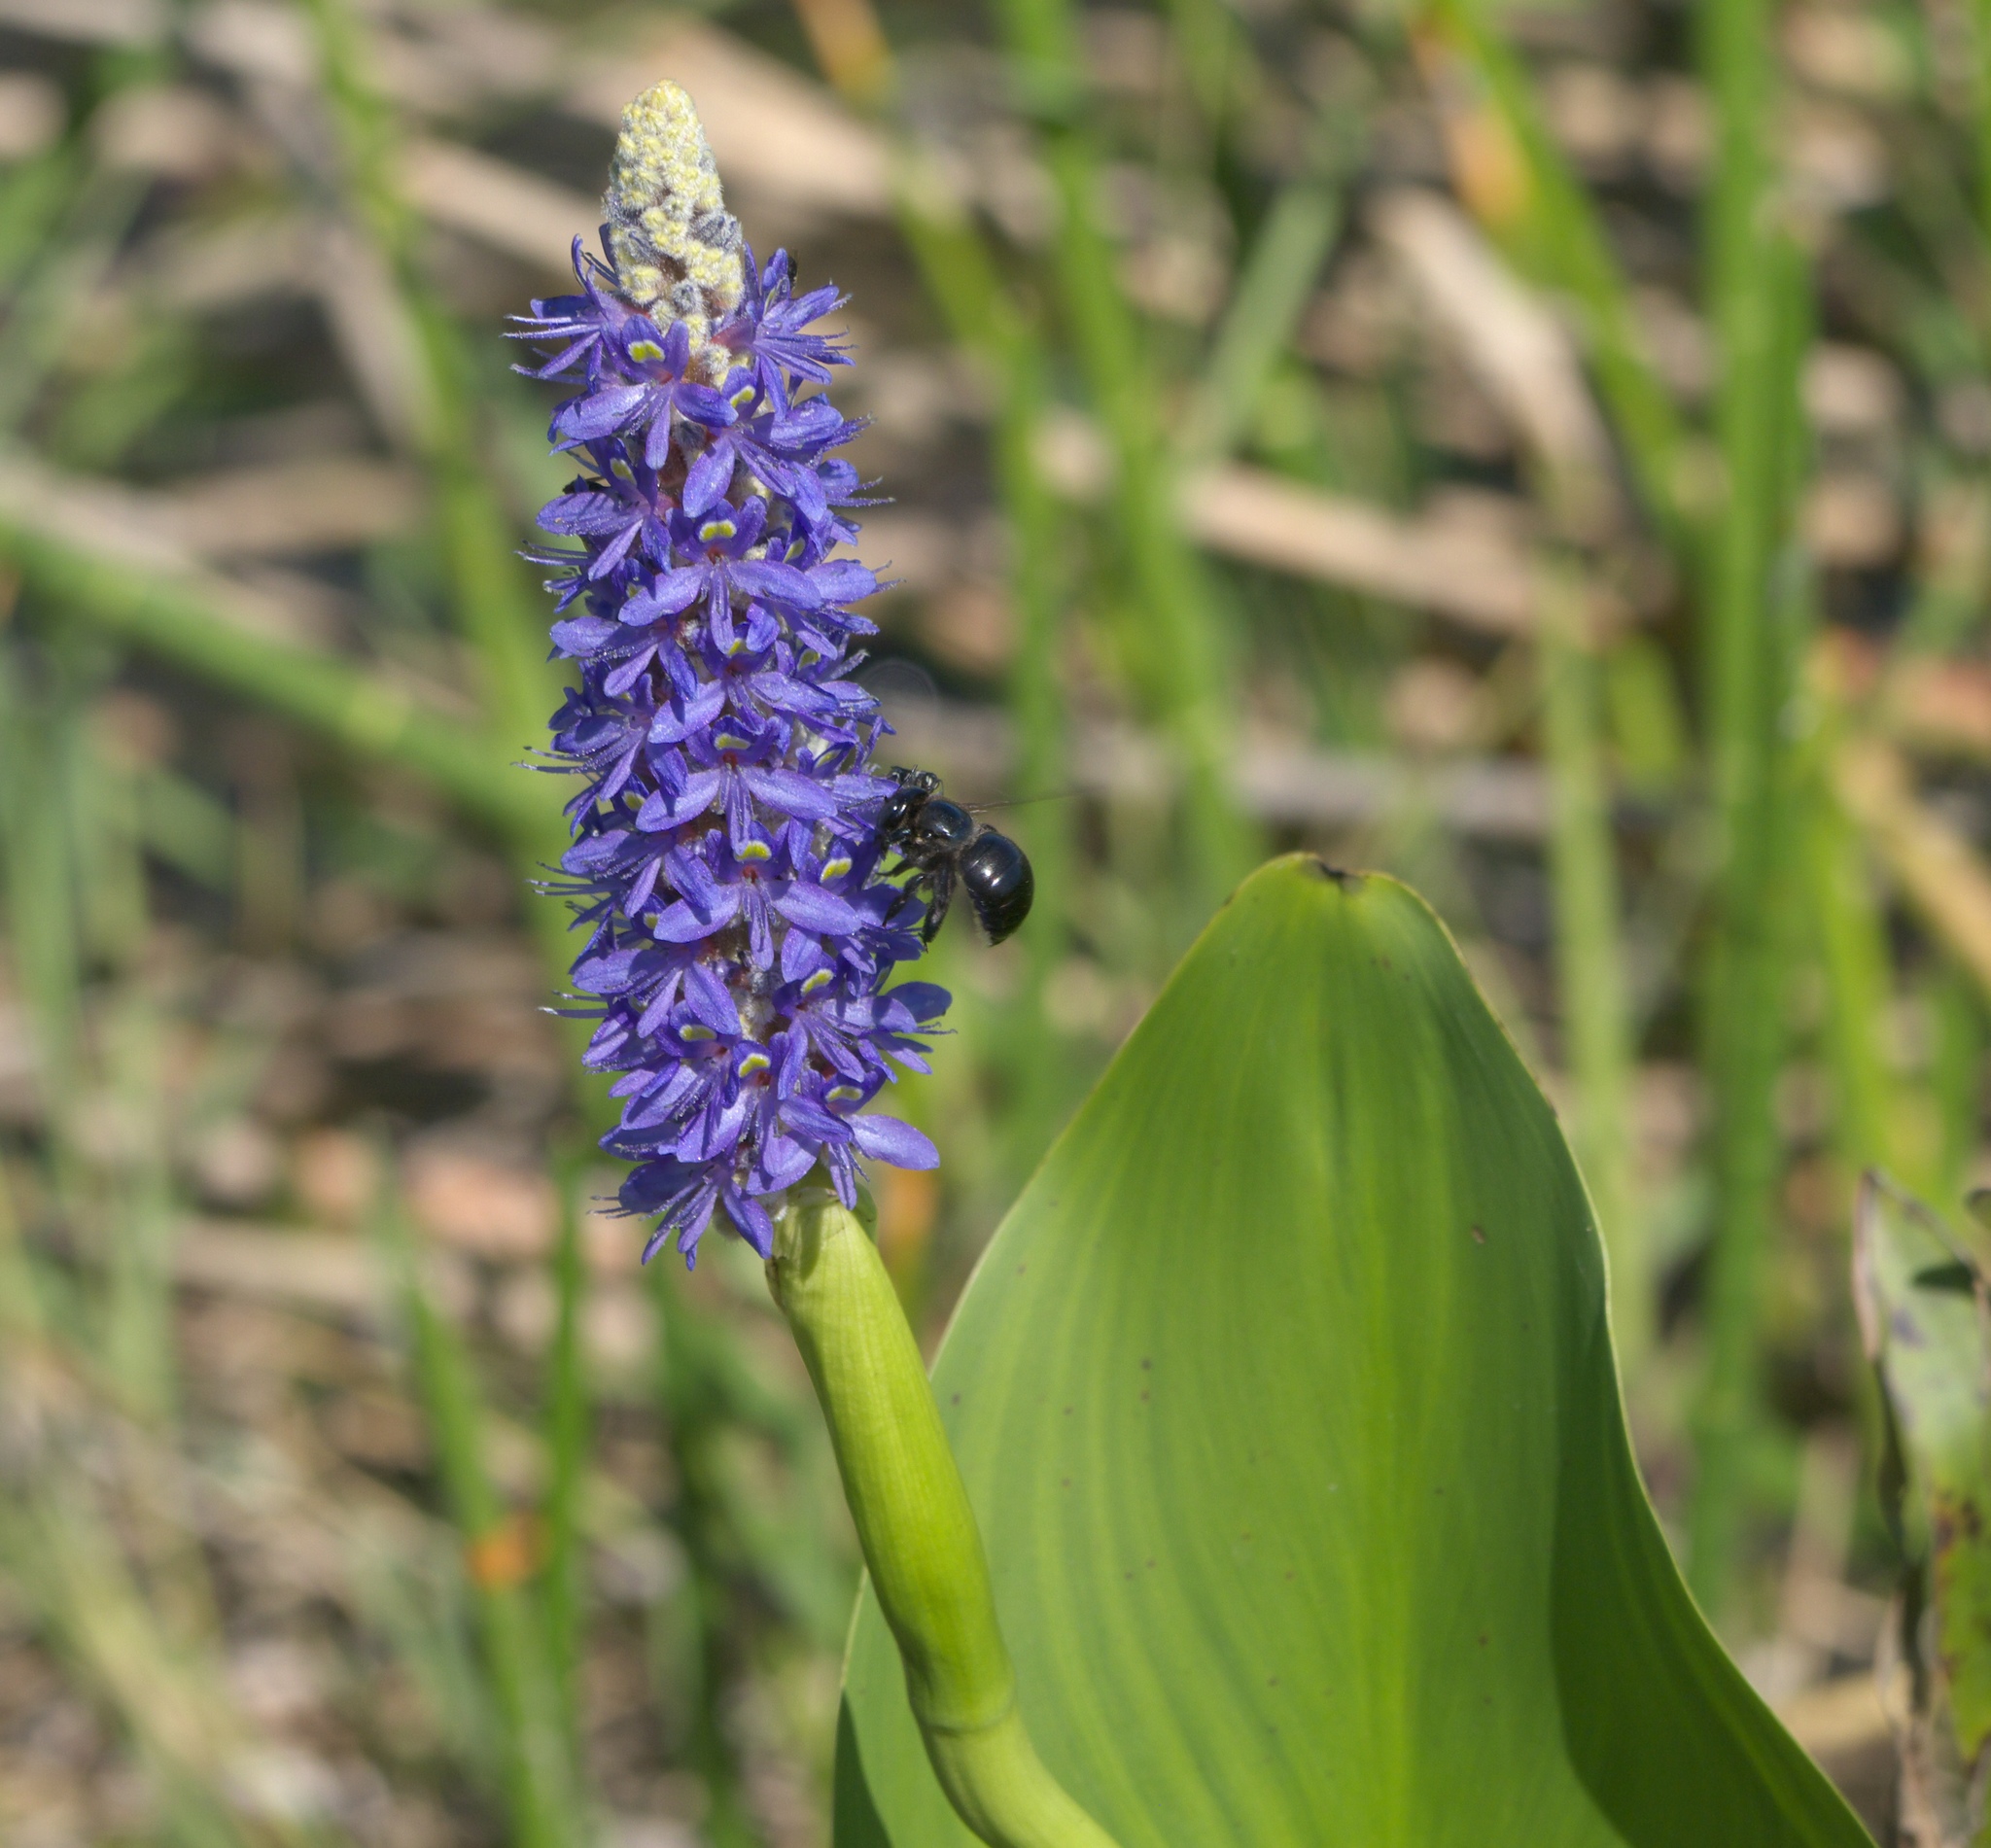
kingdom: Plantae
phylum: Tracheophyta
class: Liliopsida
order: Commelinales
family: Pontederiaceae
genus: Pontederia
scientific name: Pontederia cordata
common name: Pickerelweed
